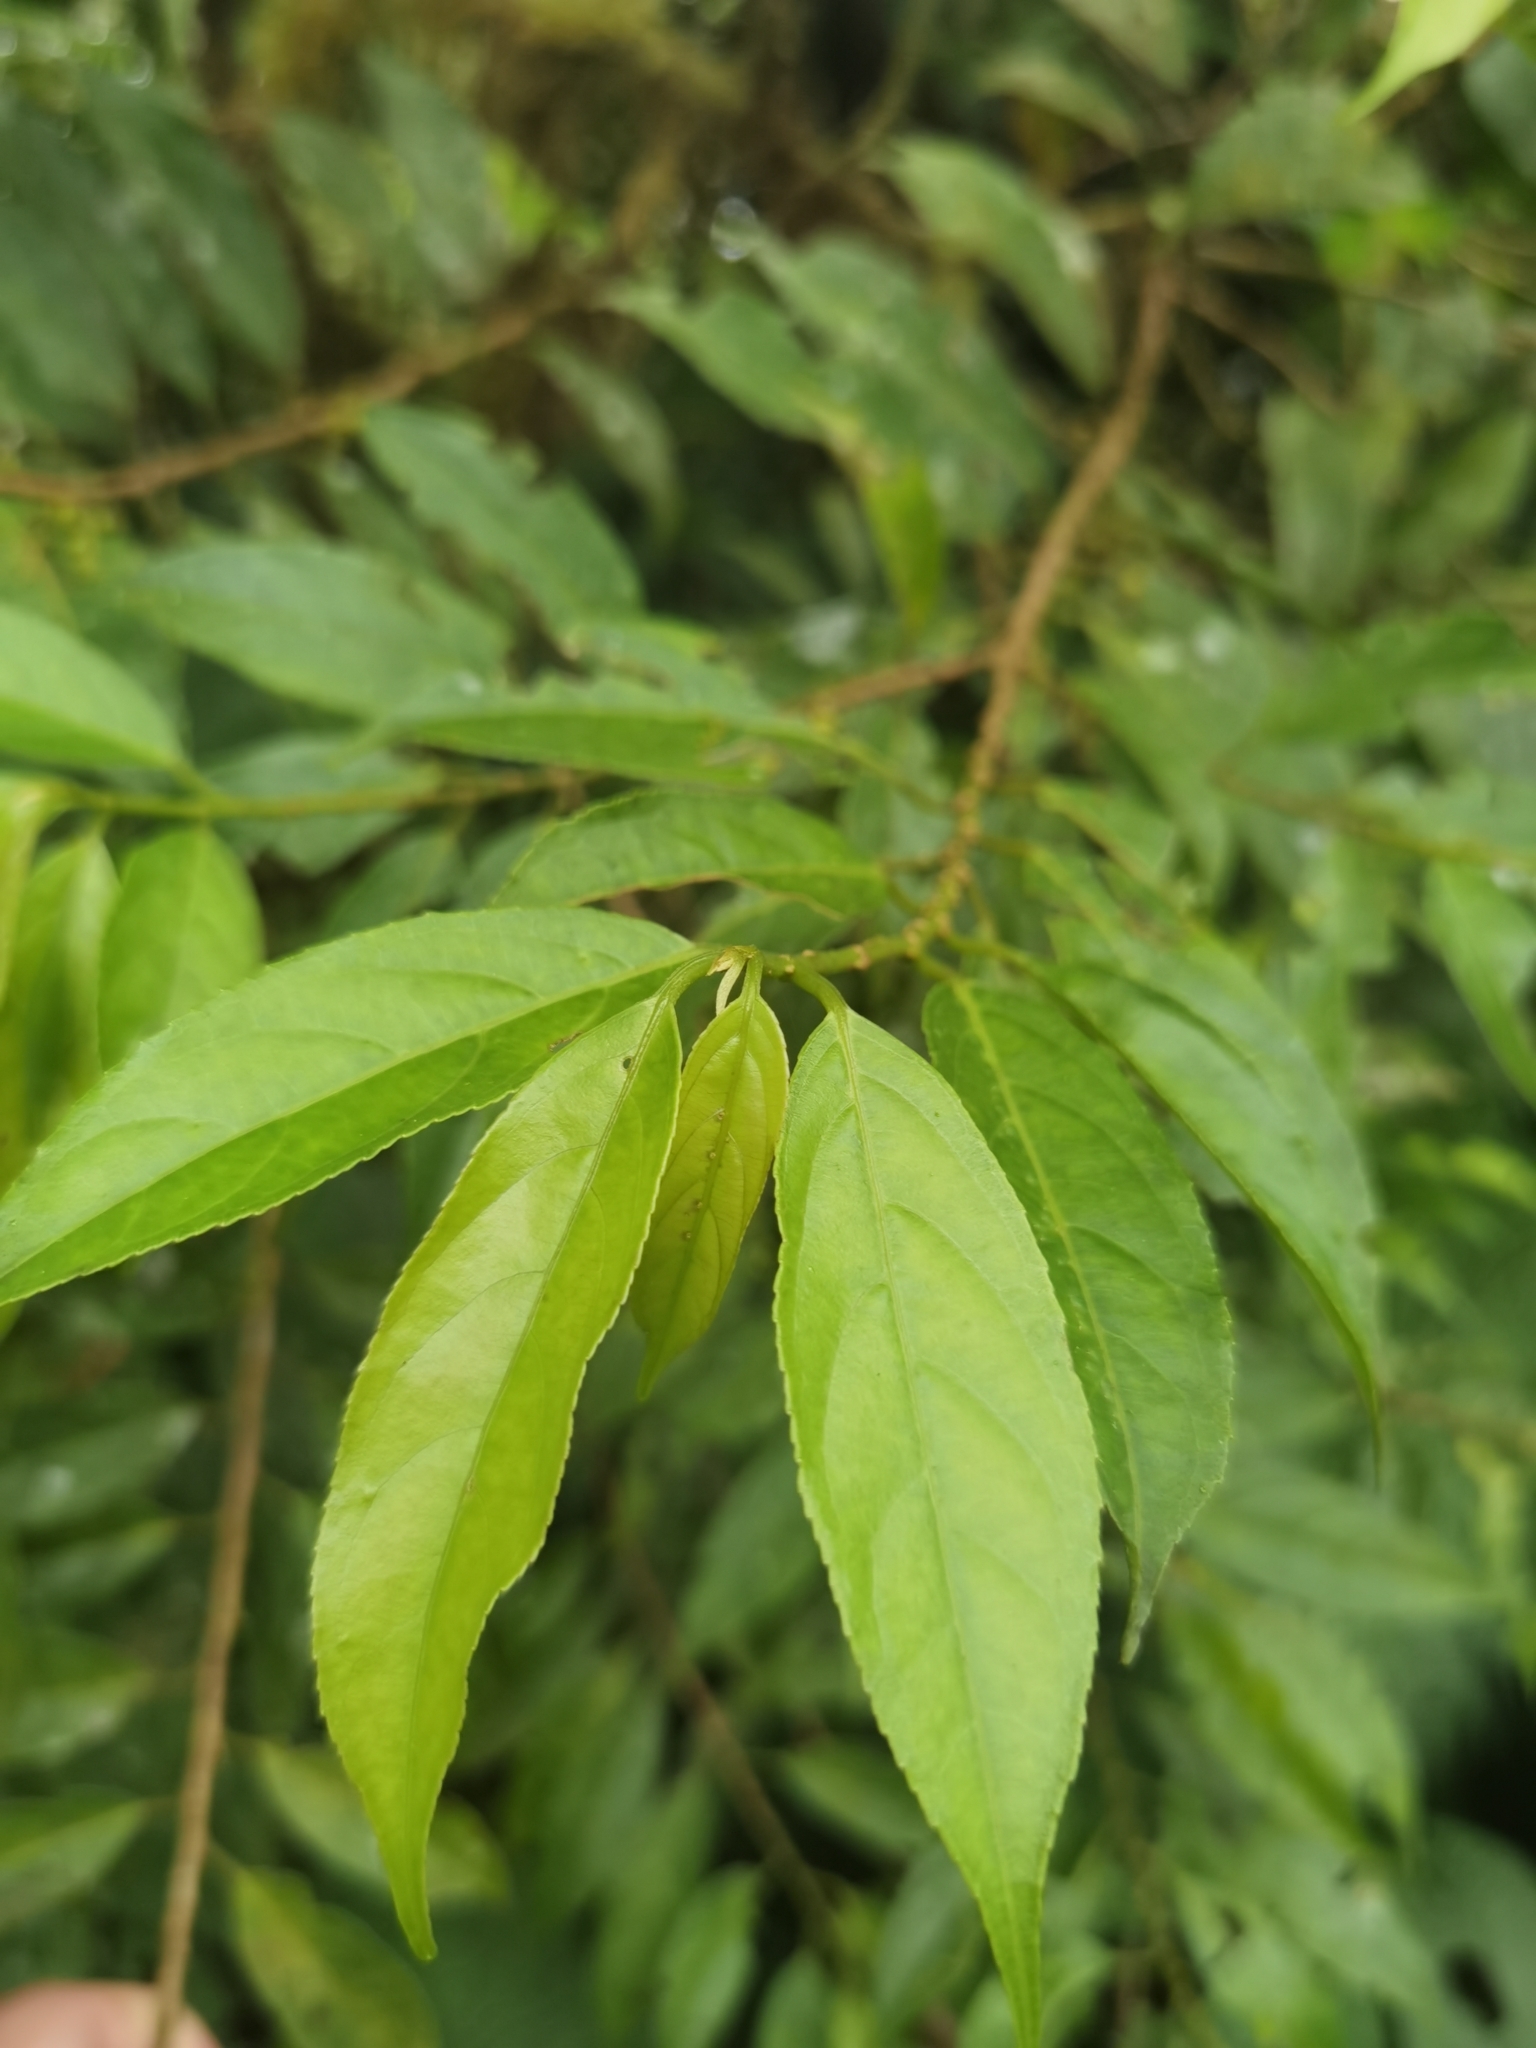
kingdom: Plantae
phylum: Tracheophyta
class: Magnoliopsida
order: Malpighiales
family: Lacistemataceae
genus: Lozania
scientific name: Lozania pittieri
